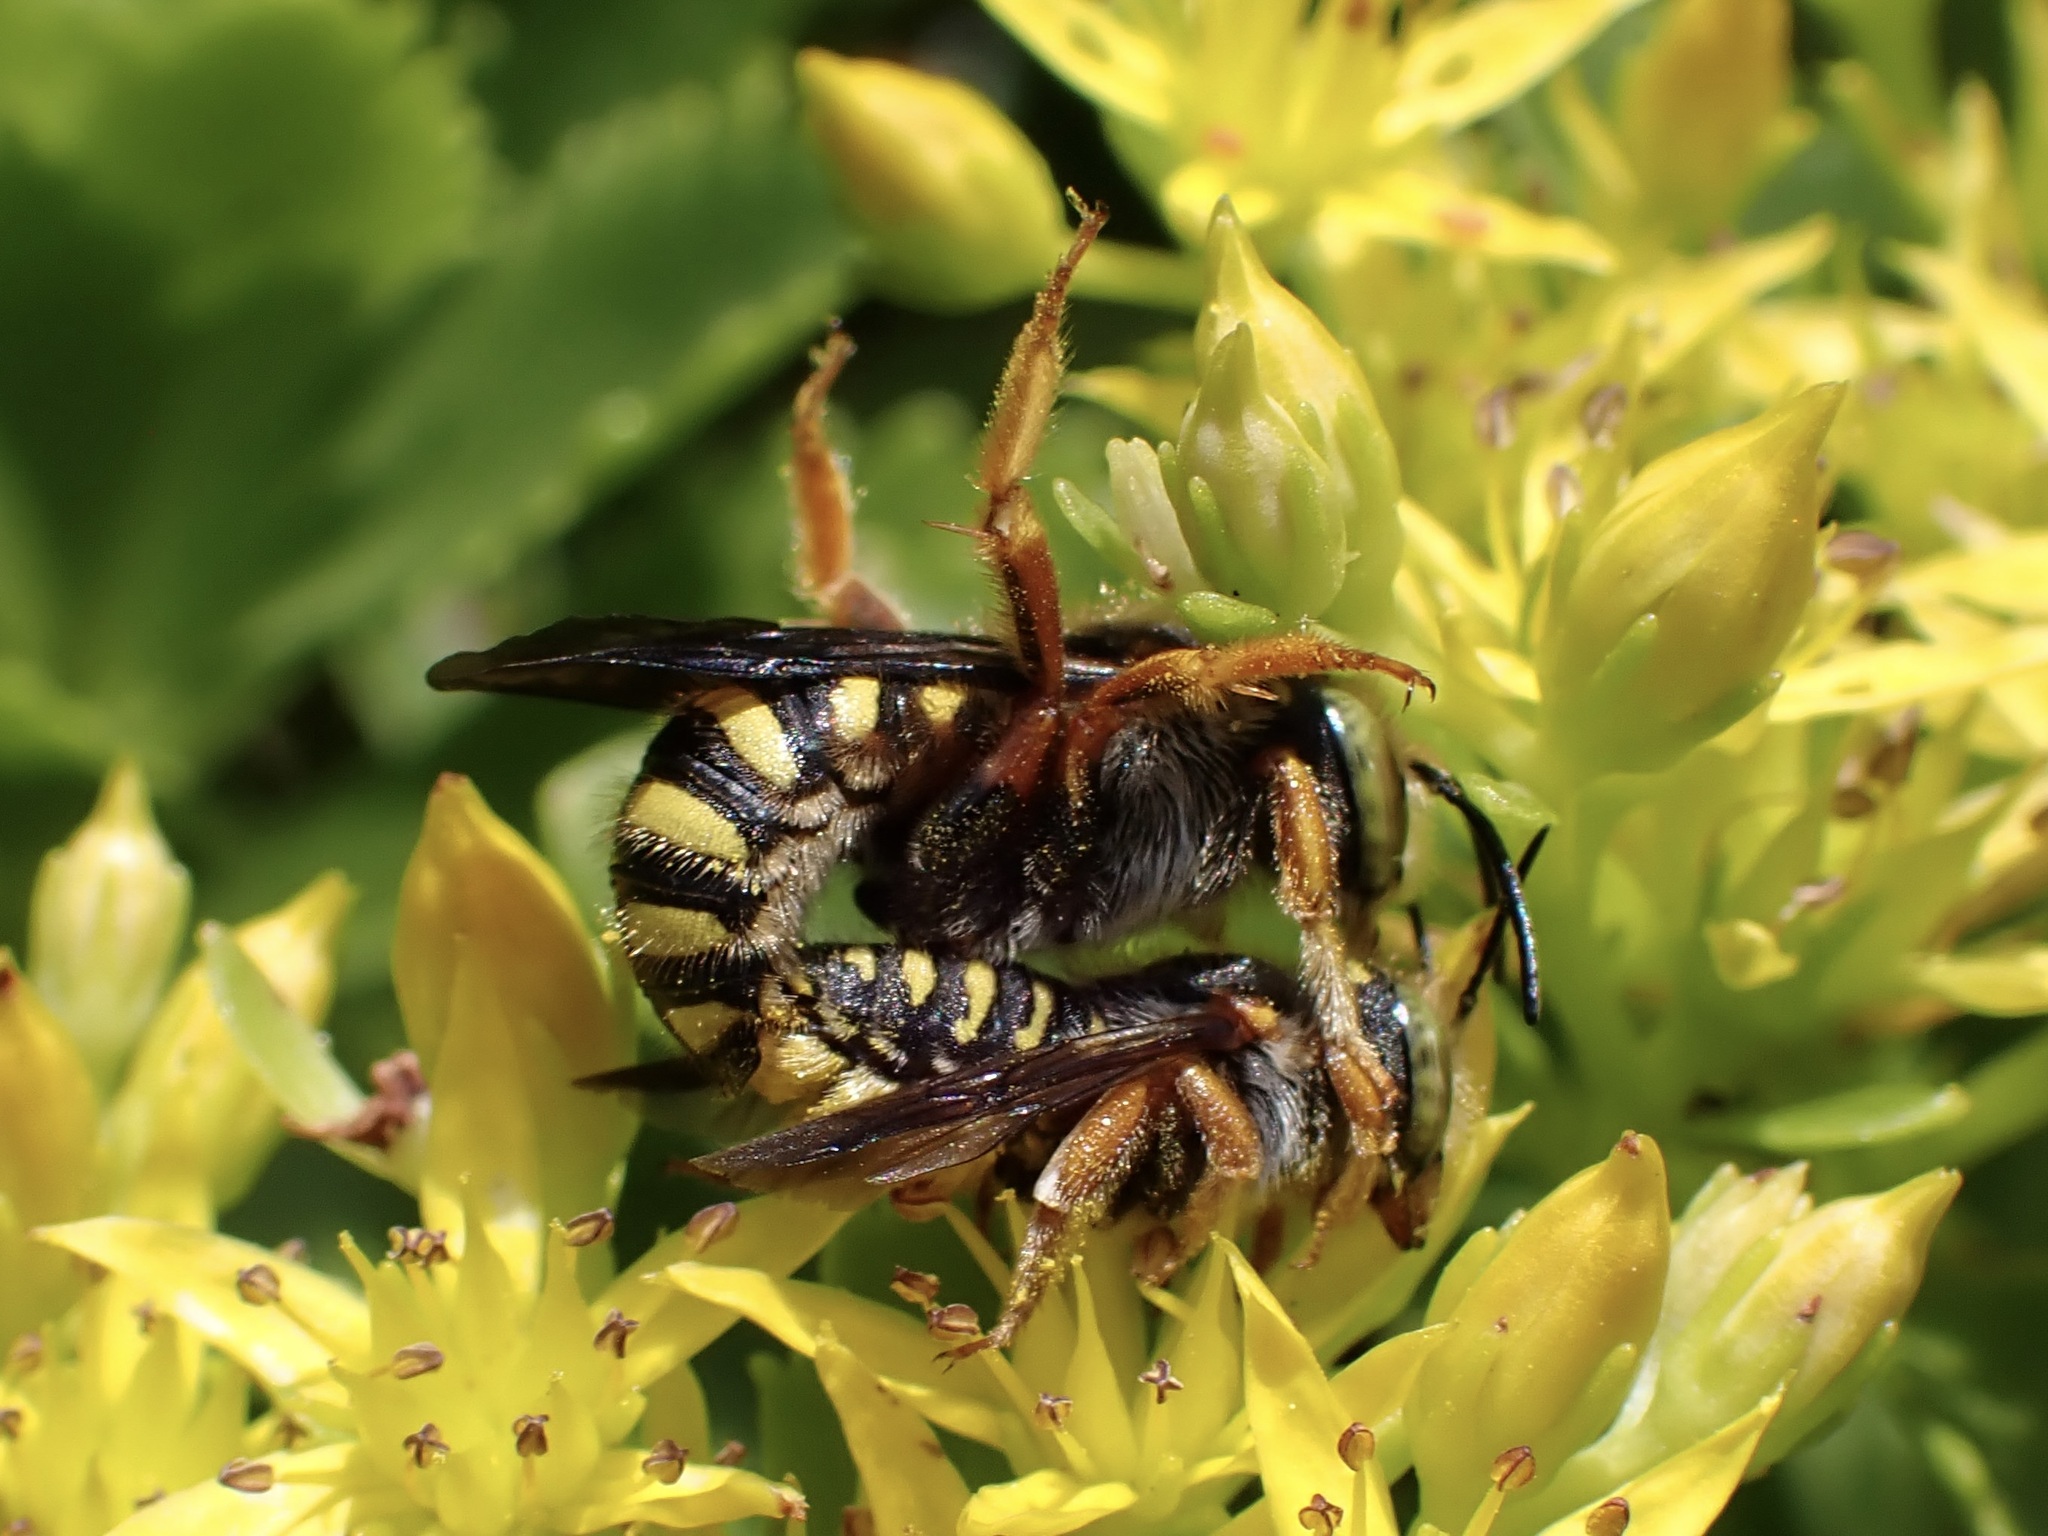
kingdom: Animalia
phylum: Arthropoda
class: Insecta
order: Hymenoptera
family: Megachilidae
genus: Anthidium
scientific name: Anthidium oblongatum
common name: Oblong wool carder bee
